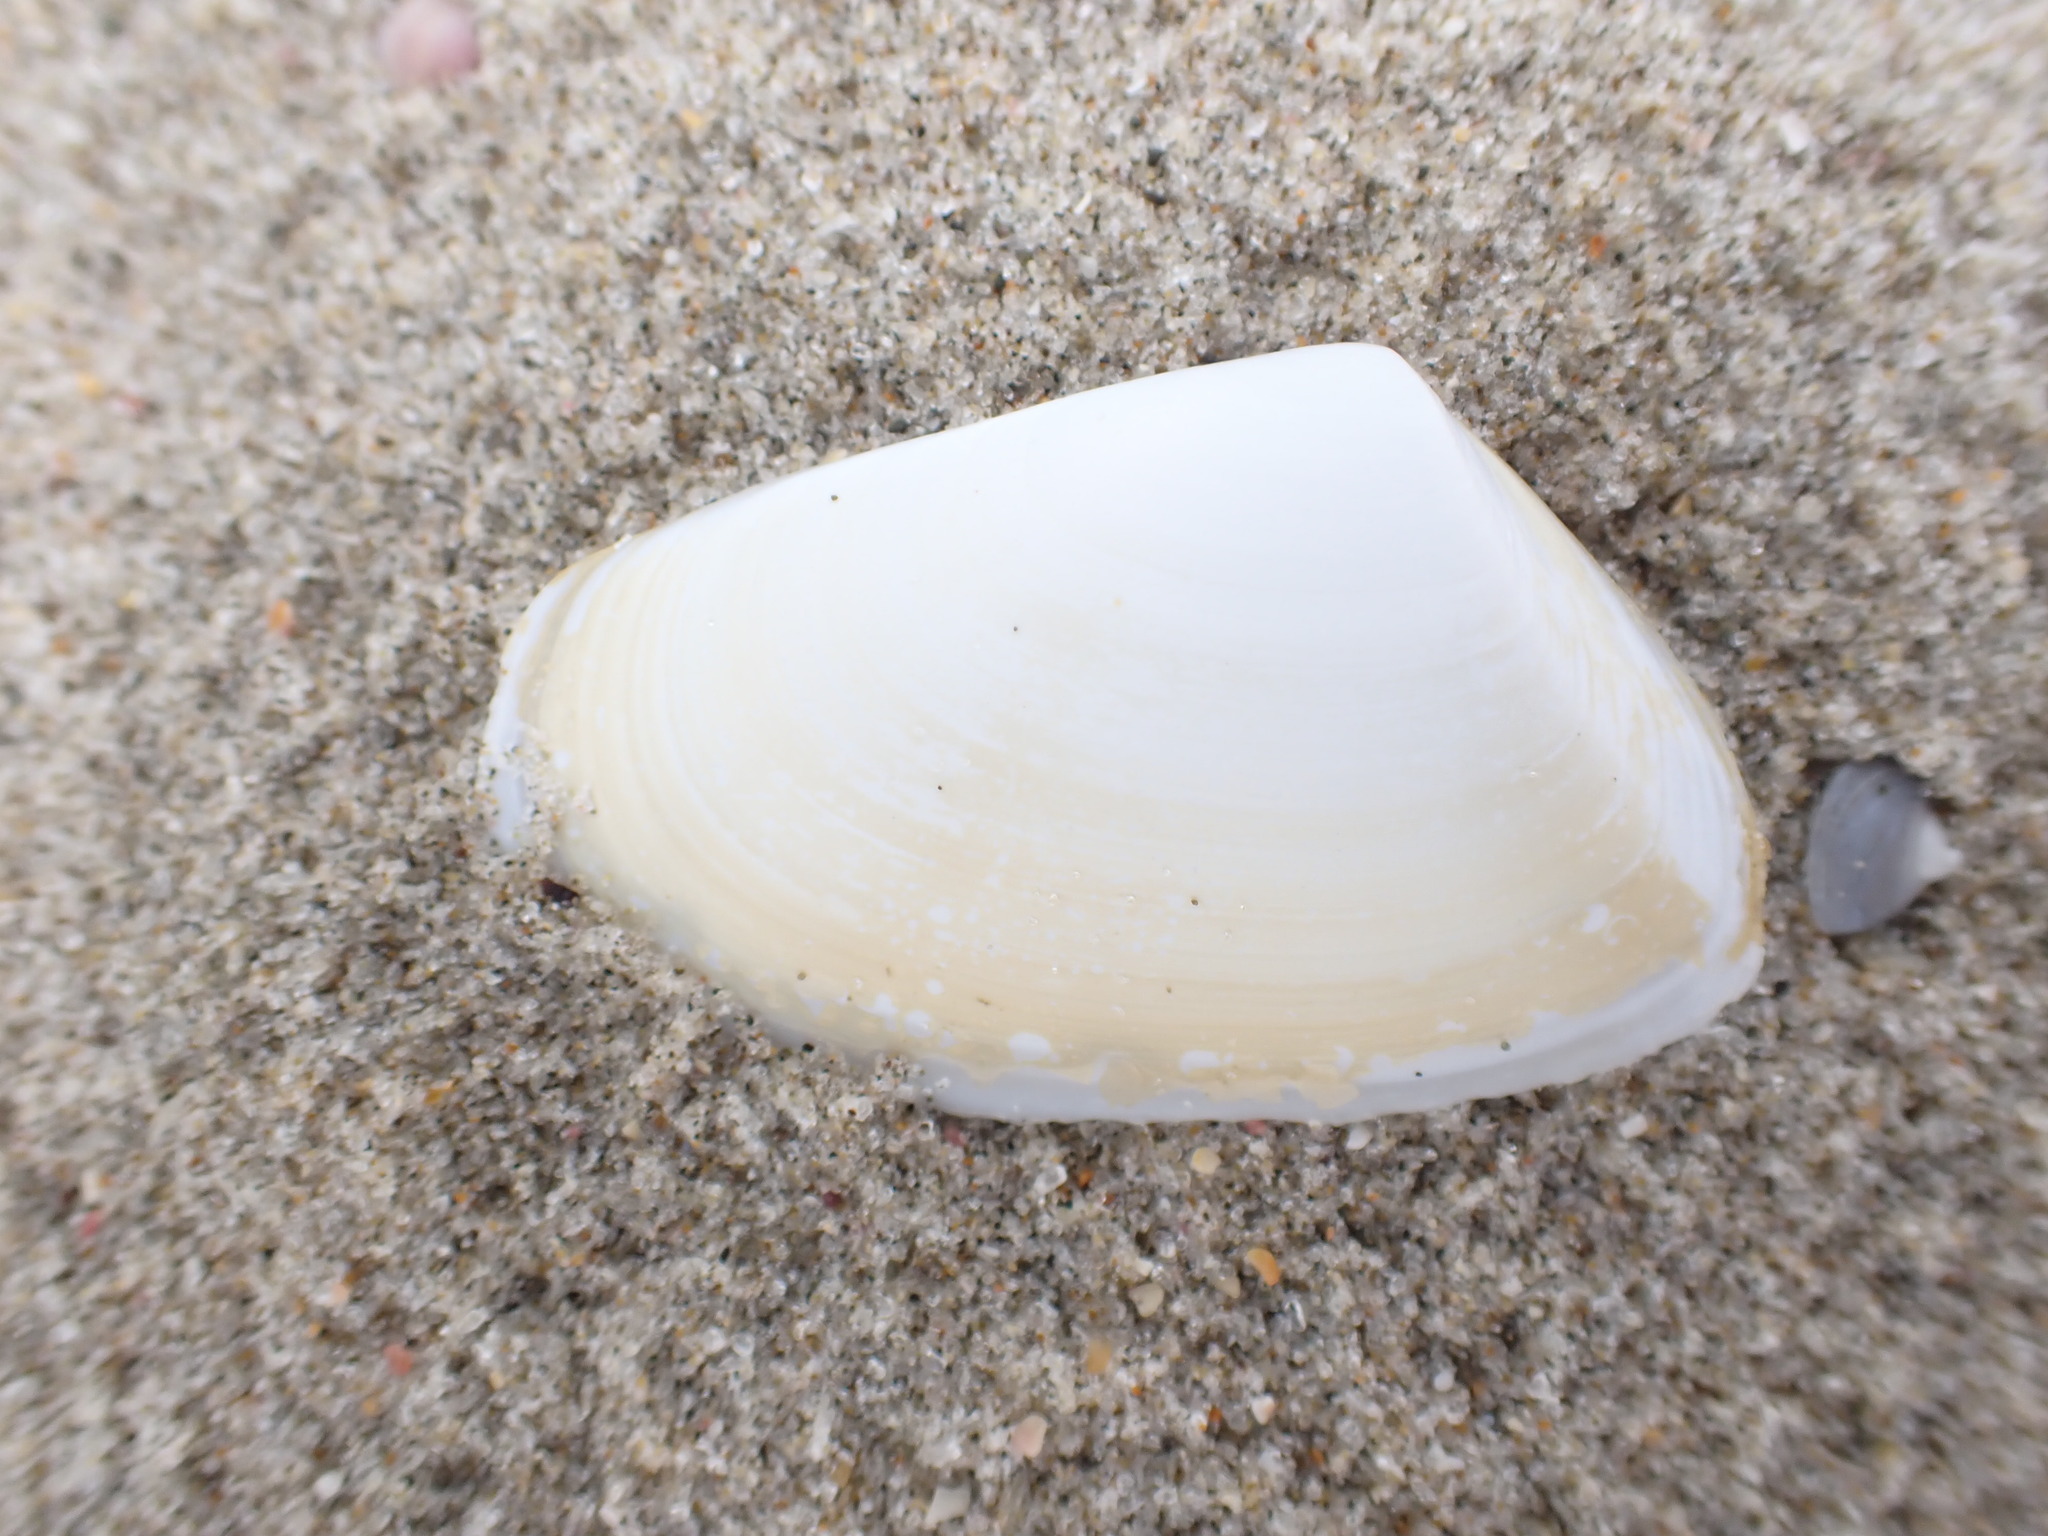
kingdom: Animalia
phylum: Mollusca
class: Bivalvia
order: Venerida
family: Mesodesmatidae
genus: Paphies
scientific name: Paphies subtriangulata
